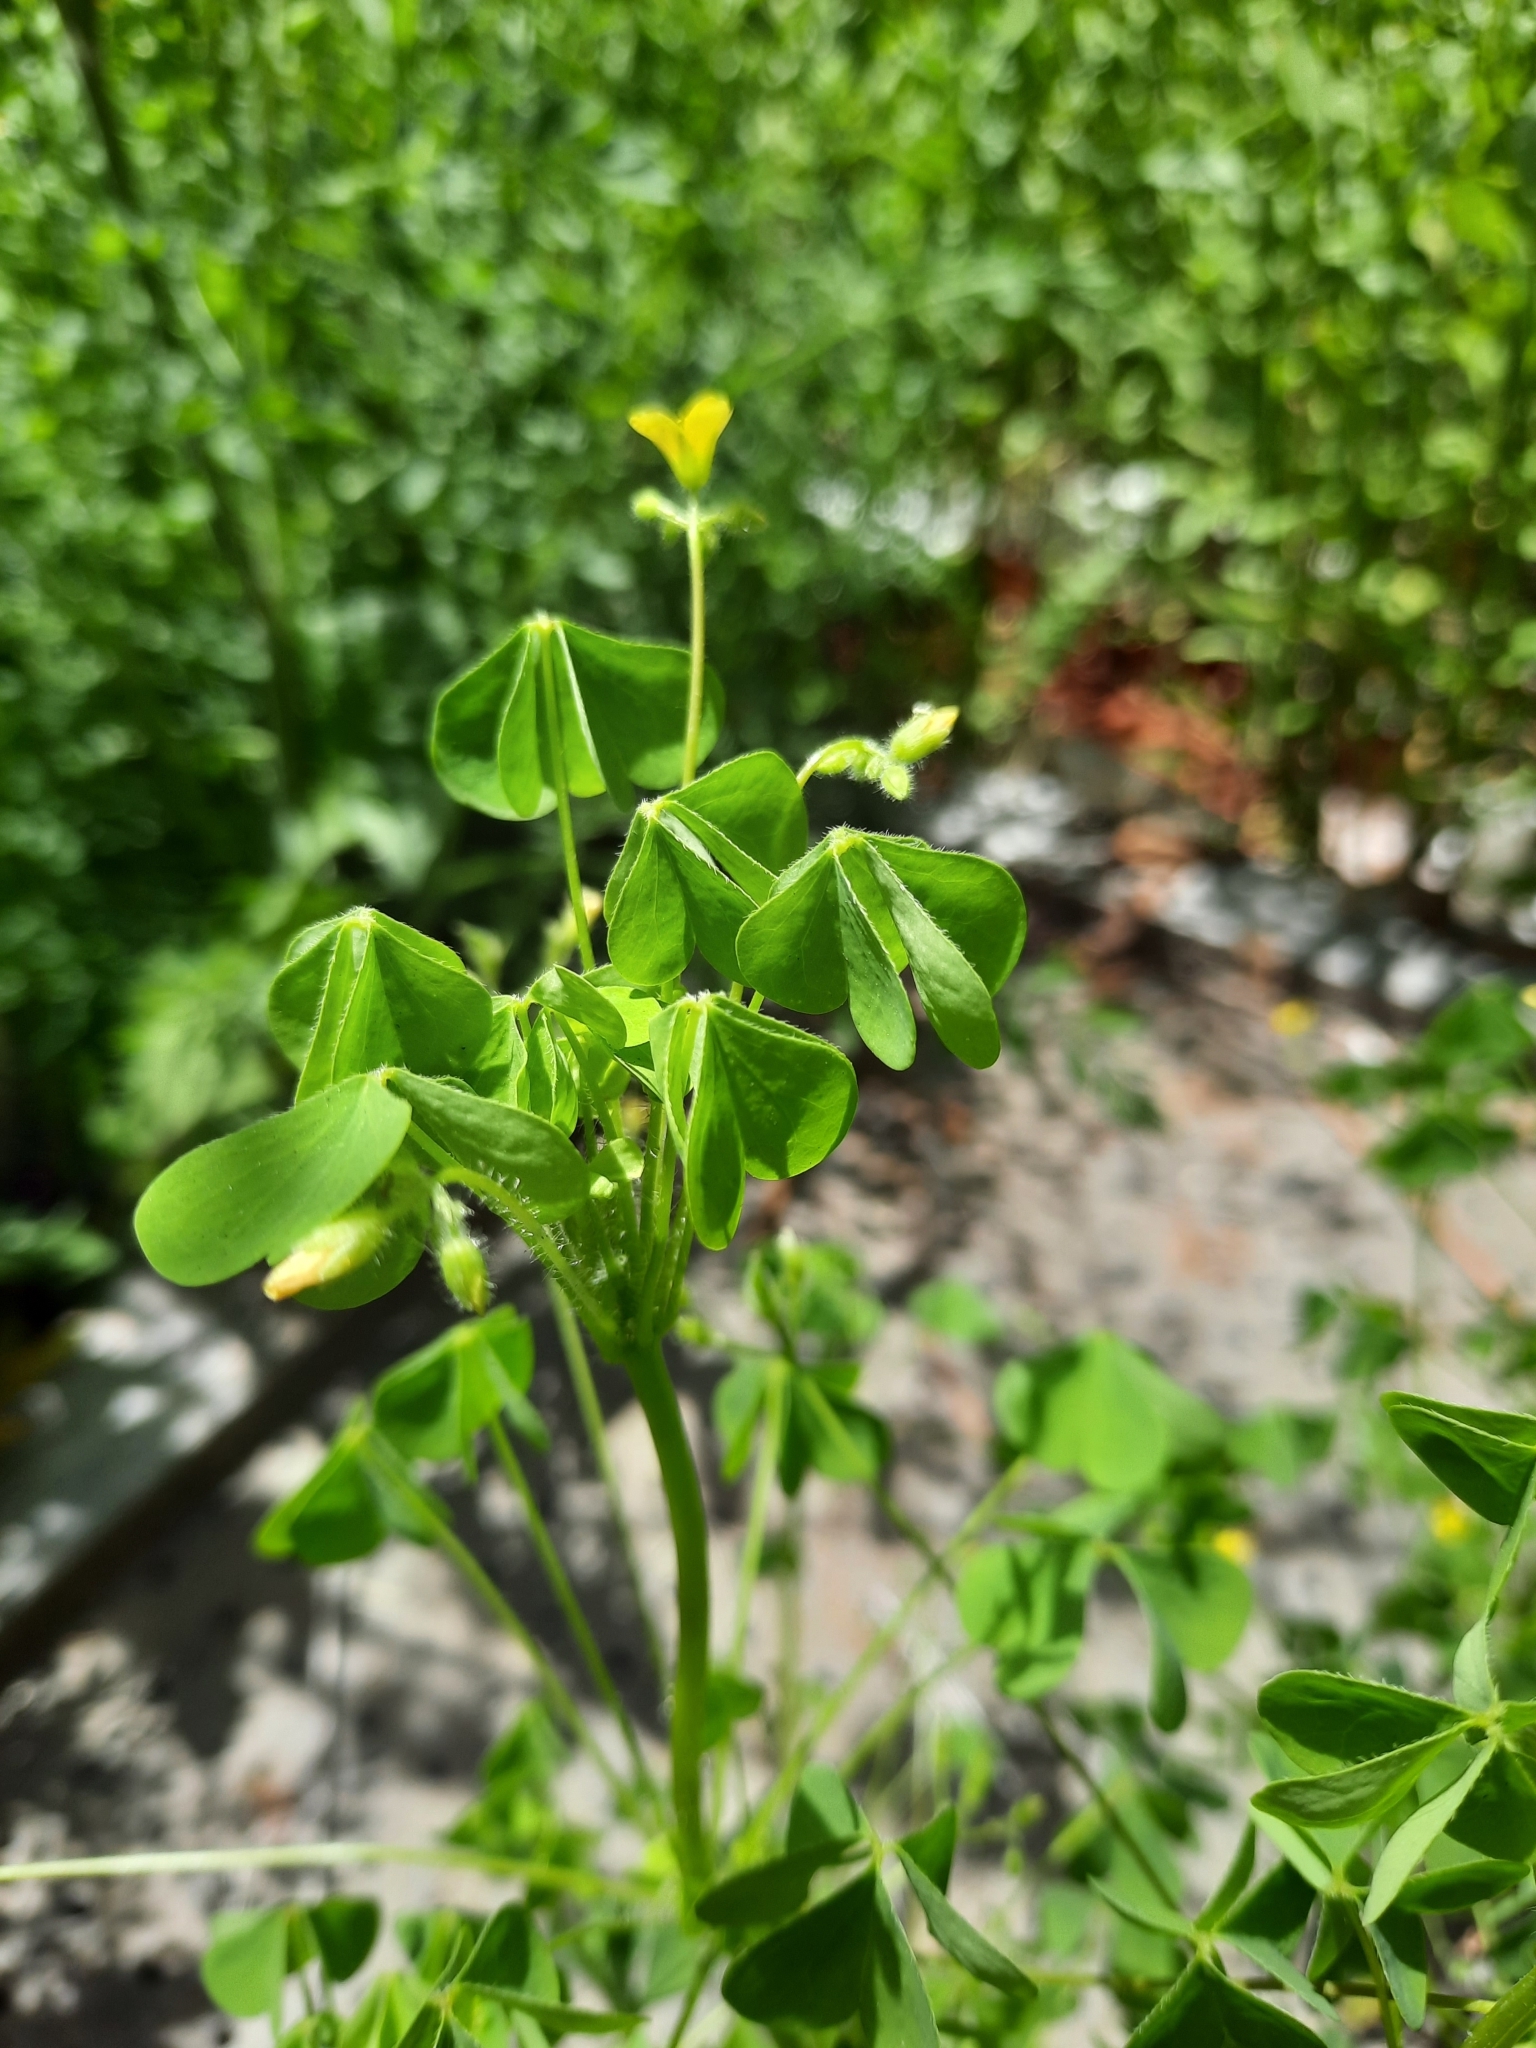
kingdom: Plantae
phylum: Tracheophyta
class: Magnoliopsida
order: Oxalidales
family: Oxalidaceae
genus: Oxalis
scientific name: Oxalis stricta
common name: Upright yellow-sorrel
